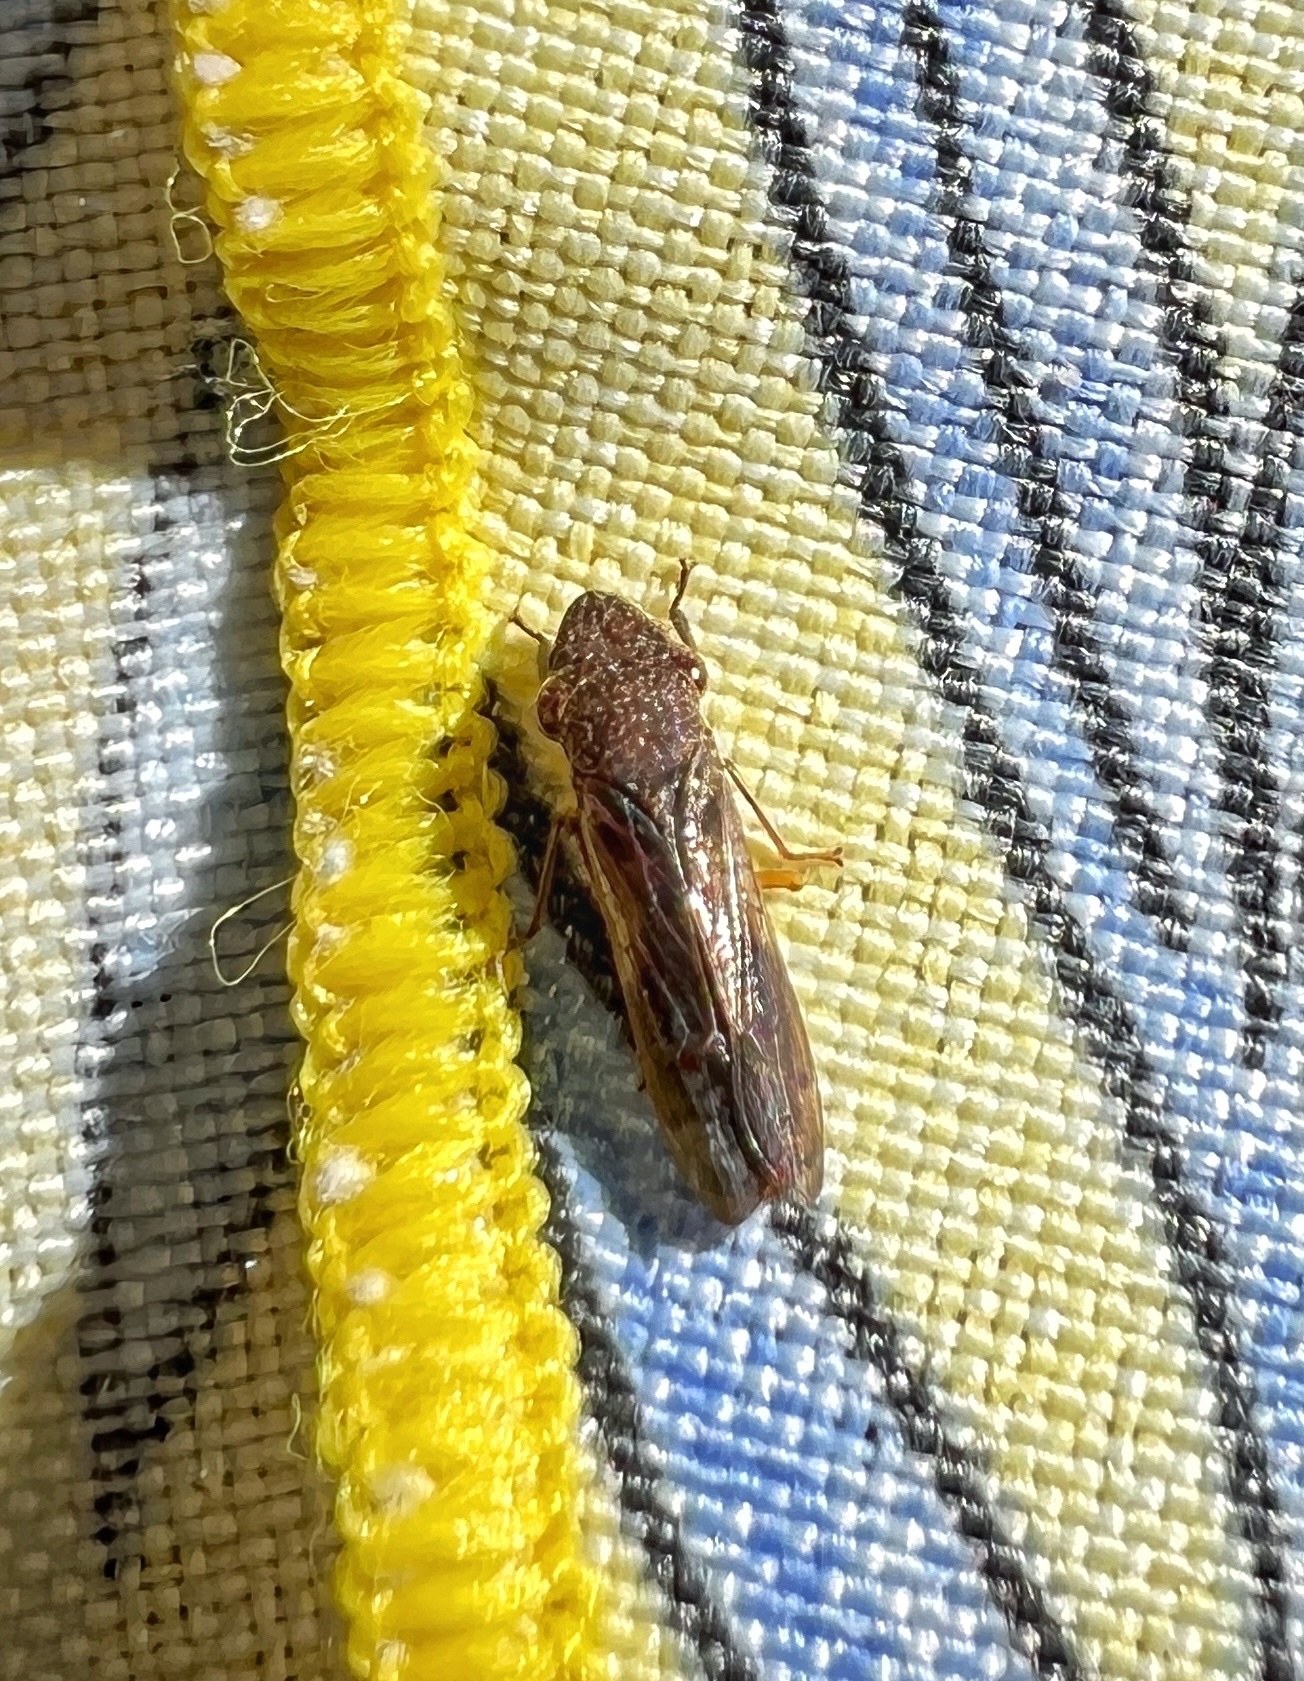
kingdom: Animalia
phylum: Arthropoda
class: Insecta
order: Hemiptera
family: Cicadellidae
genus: Homalodisca
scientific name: Homalodisca vitripennis
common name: Glassy-winged sharpshooter
